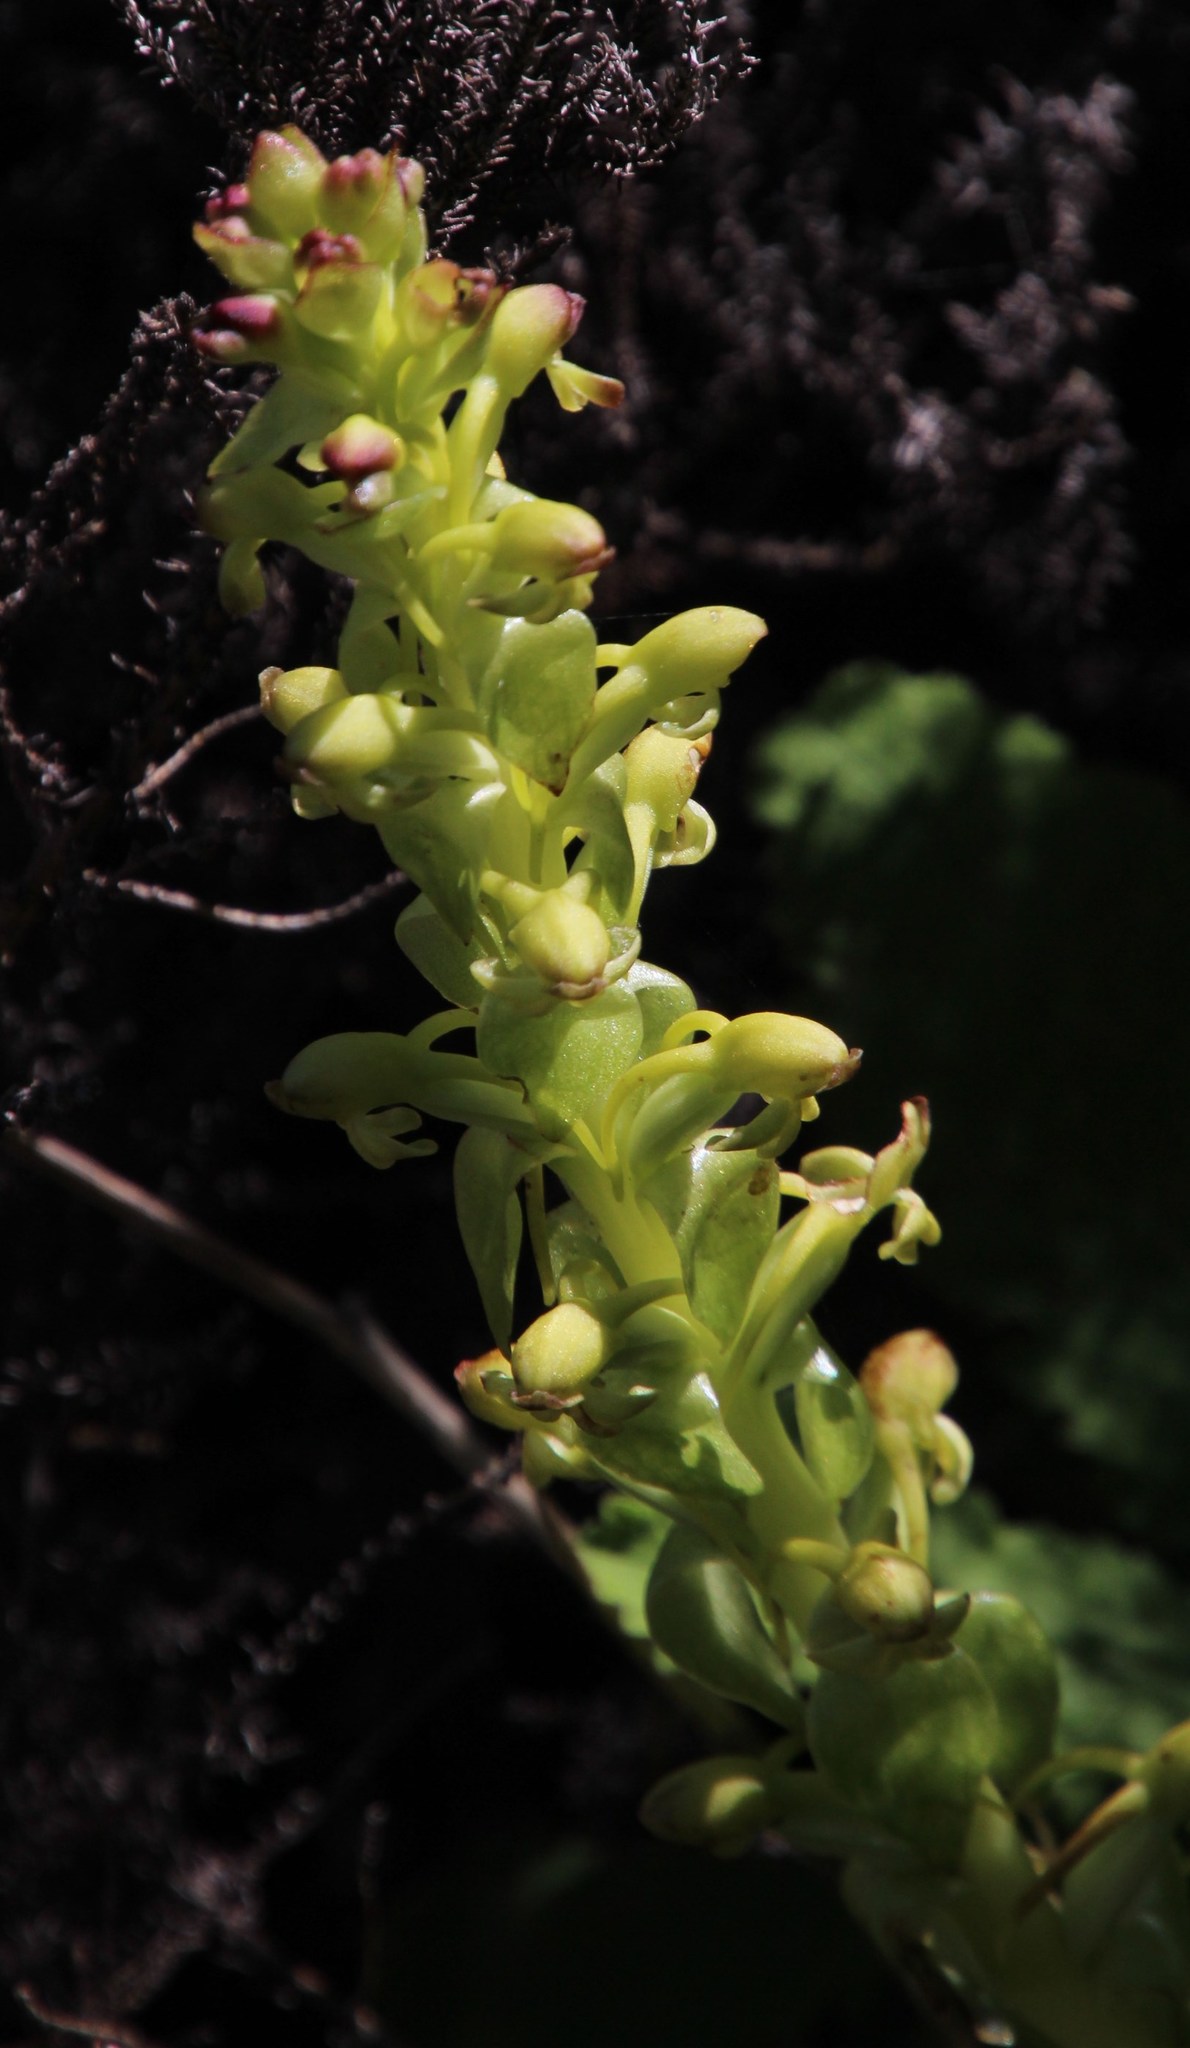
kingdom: Plantae
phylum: Tracheophyta
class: Liliopsida
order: Asparagales
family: Orchidaceae
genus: Satyrium
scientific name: Satyrium odorum
